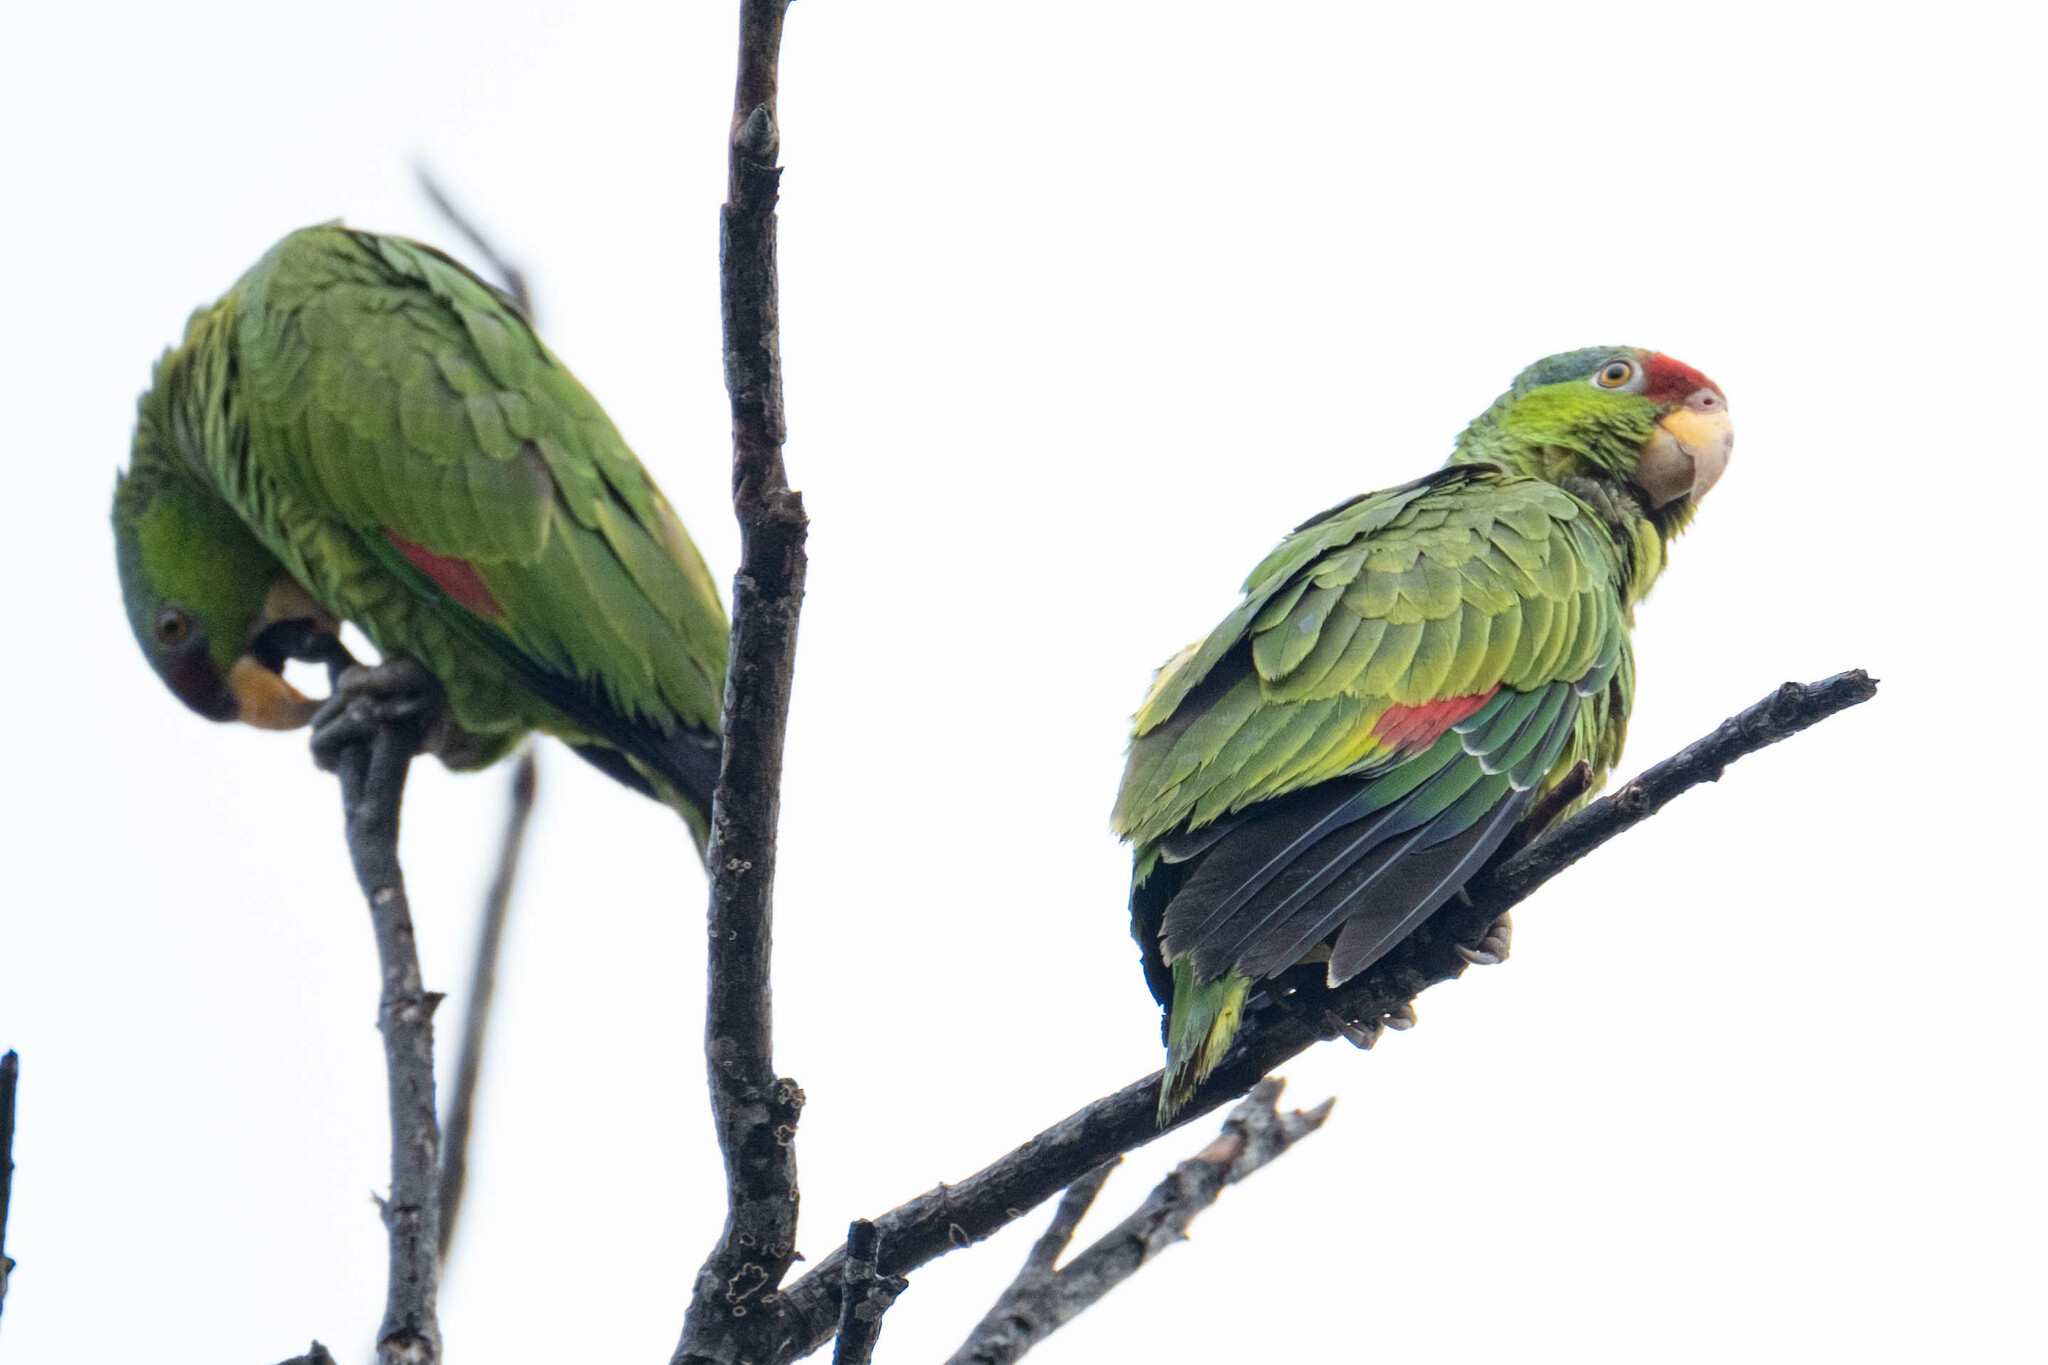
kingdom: Animalia
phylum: Chordata
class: Aves
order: Psittaciformes
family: Psittacidae
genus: Amazona
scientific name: Amazona viridigenalis
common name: Red-crowned amazon
